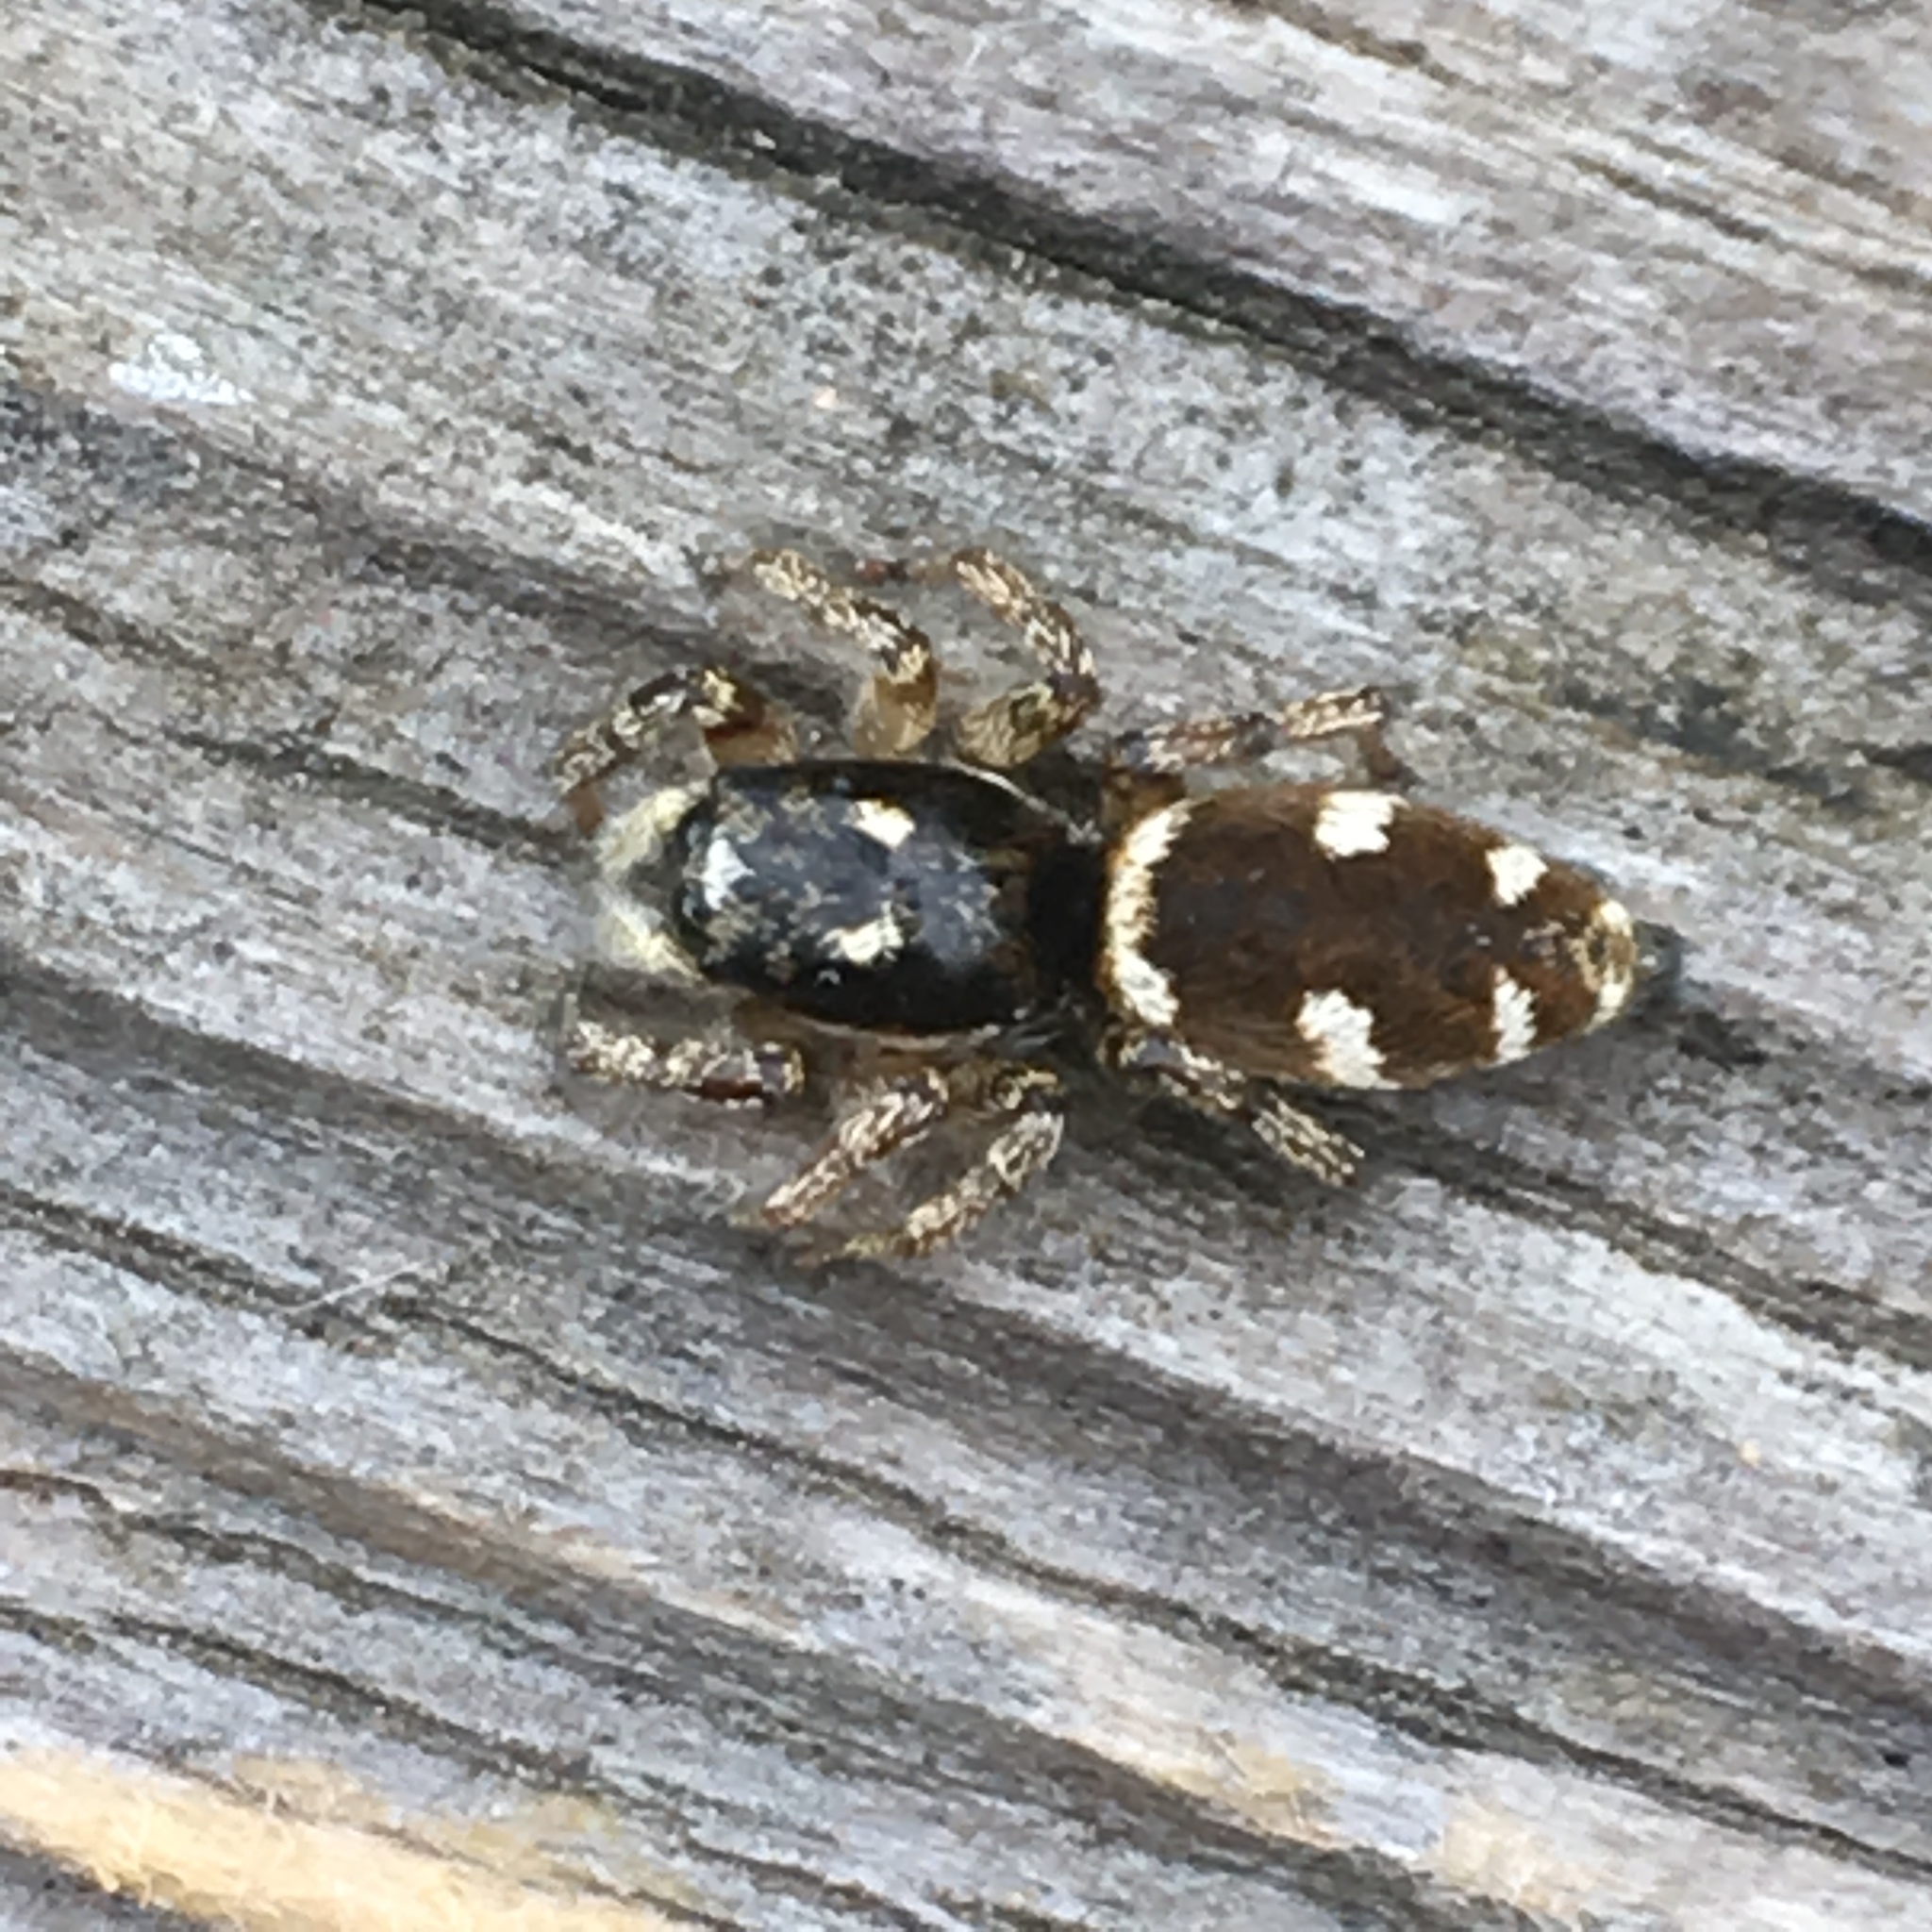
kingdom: Animalia
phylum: Arthropoda
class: Arachnida
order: Araneae
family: Salticidae
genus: Salticus
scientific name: Salticus scenicus
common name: Zebra jumper
